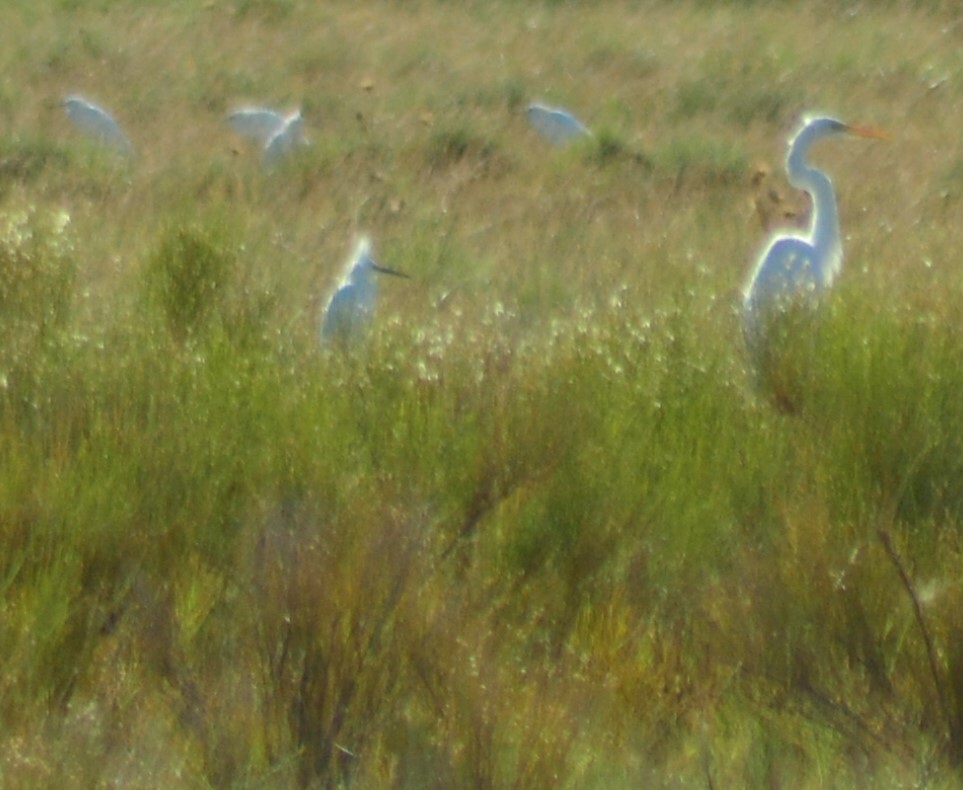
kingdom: Animalia
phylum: Chordata
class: Aves
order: Pelecaniformes
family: Ardeidae
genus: Egretta
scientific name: Egretta thula
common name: Snowy egret
